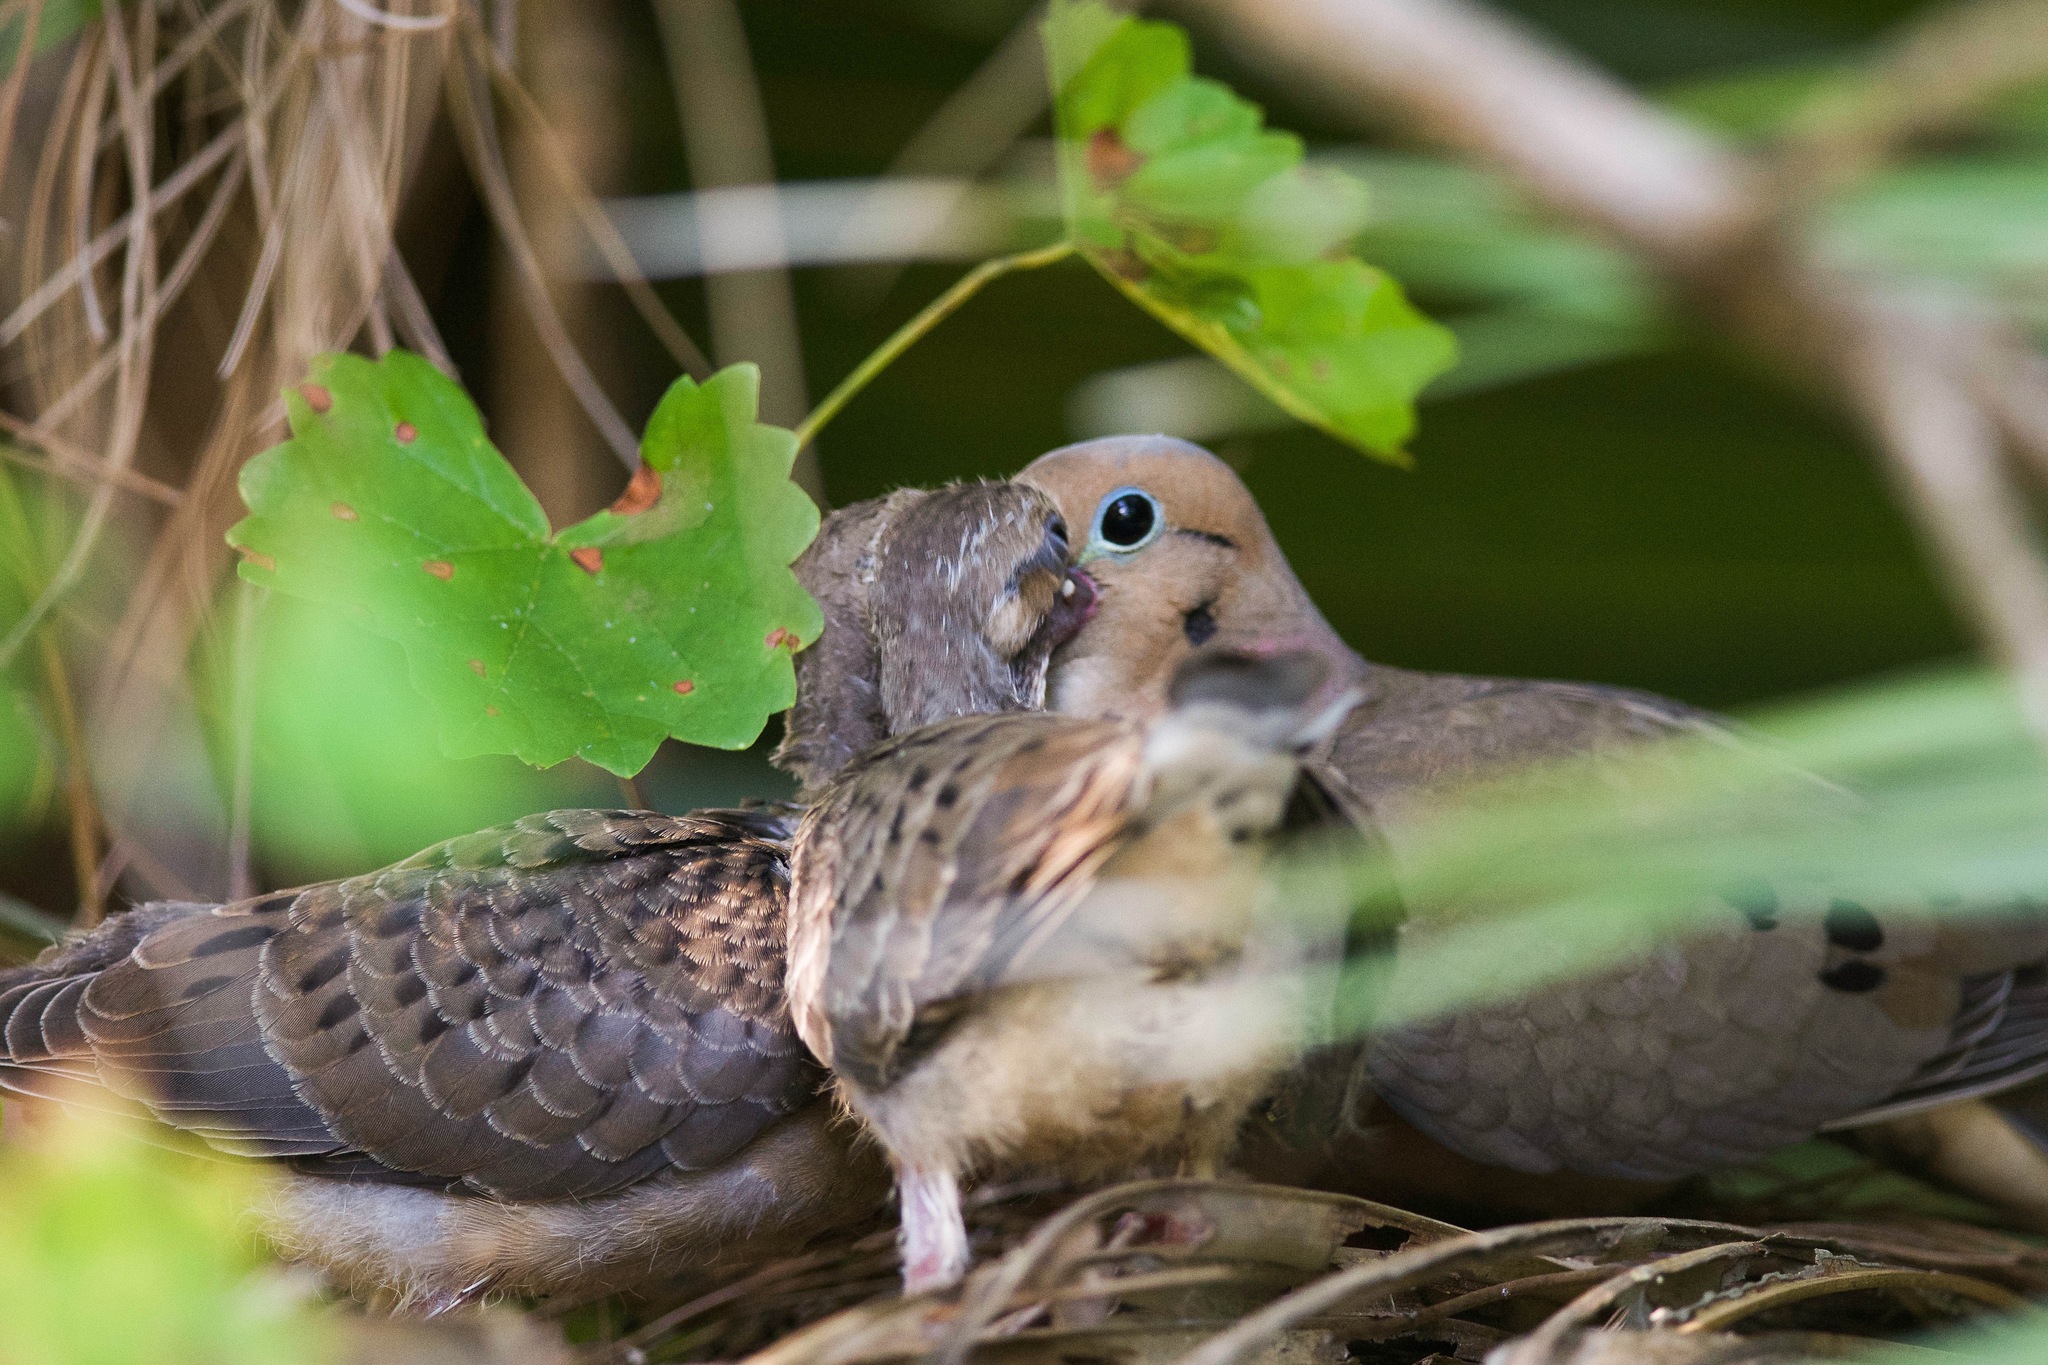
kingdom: Animalia
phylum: Chordata
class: Aves
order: Columbiformes
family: Columbidae
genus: Zenaida
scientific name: Zenaida macroura
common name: Mourning dove
